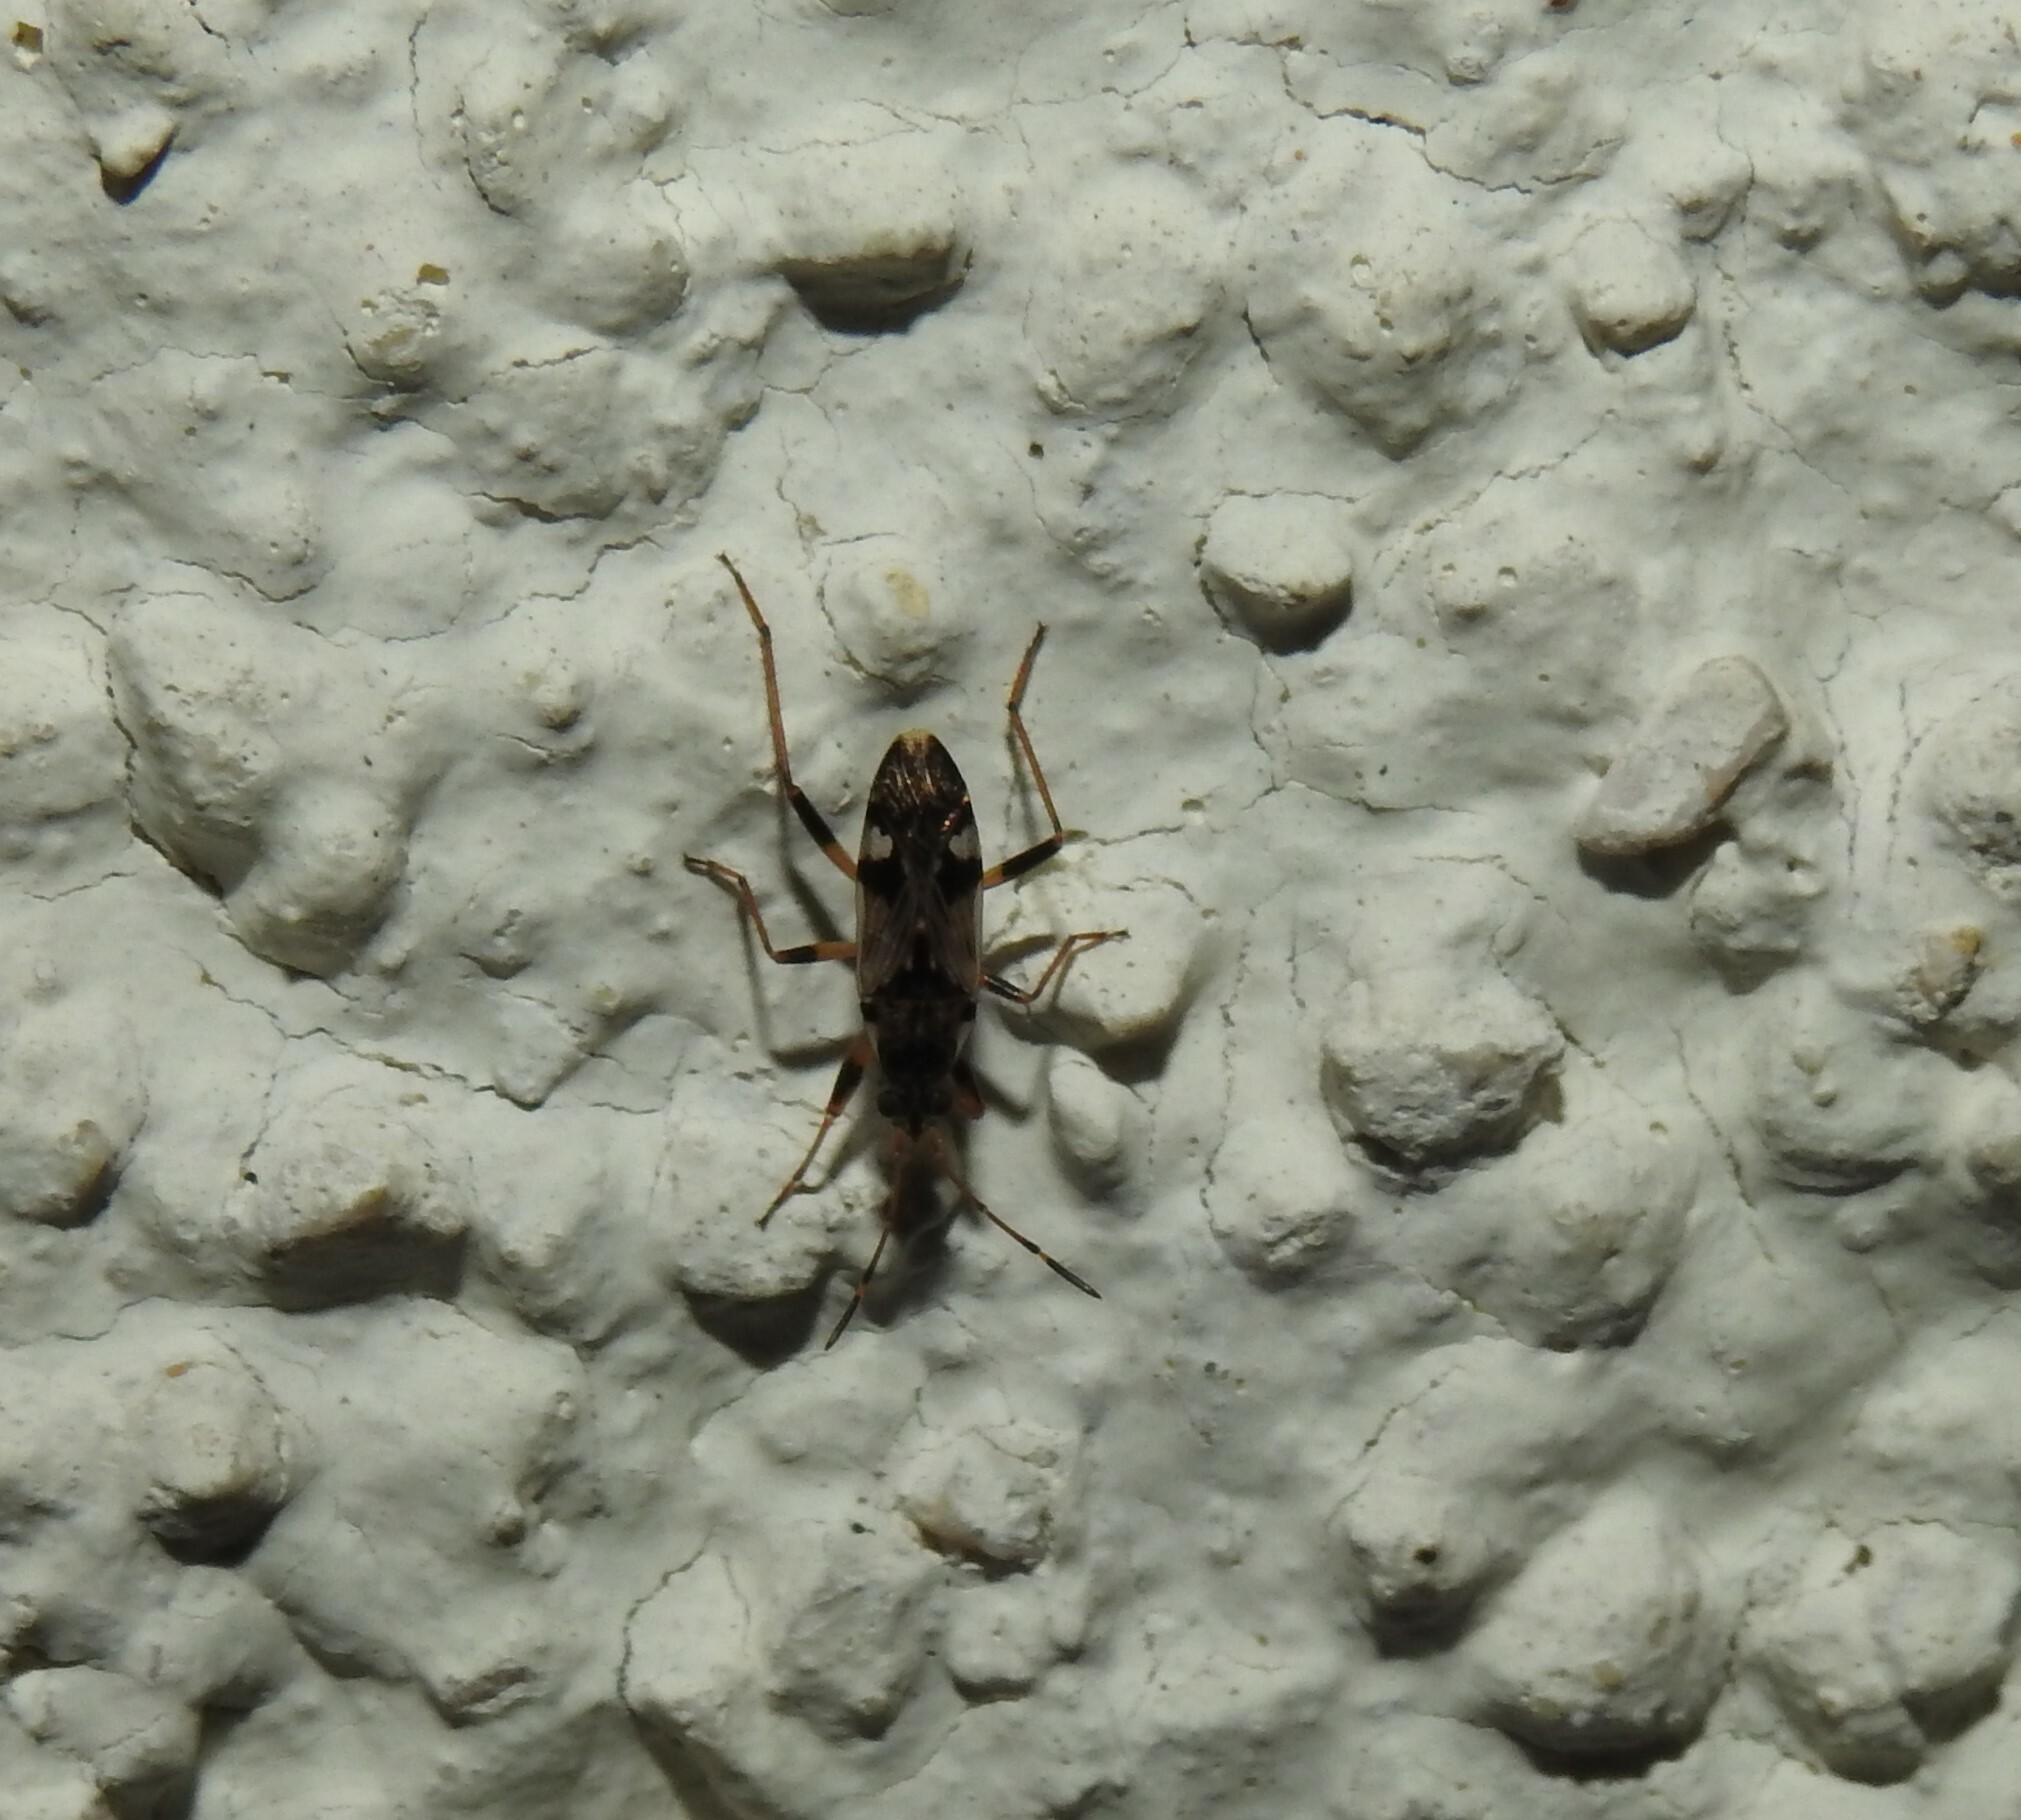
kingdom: Animalia
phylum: Arthropoda
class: Insecta
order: Hemiptera
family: Rhyparochromidae
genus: Beosus
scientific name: Beosus maritimus
